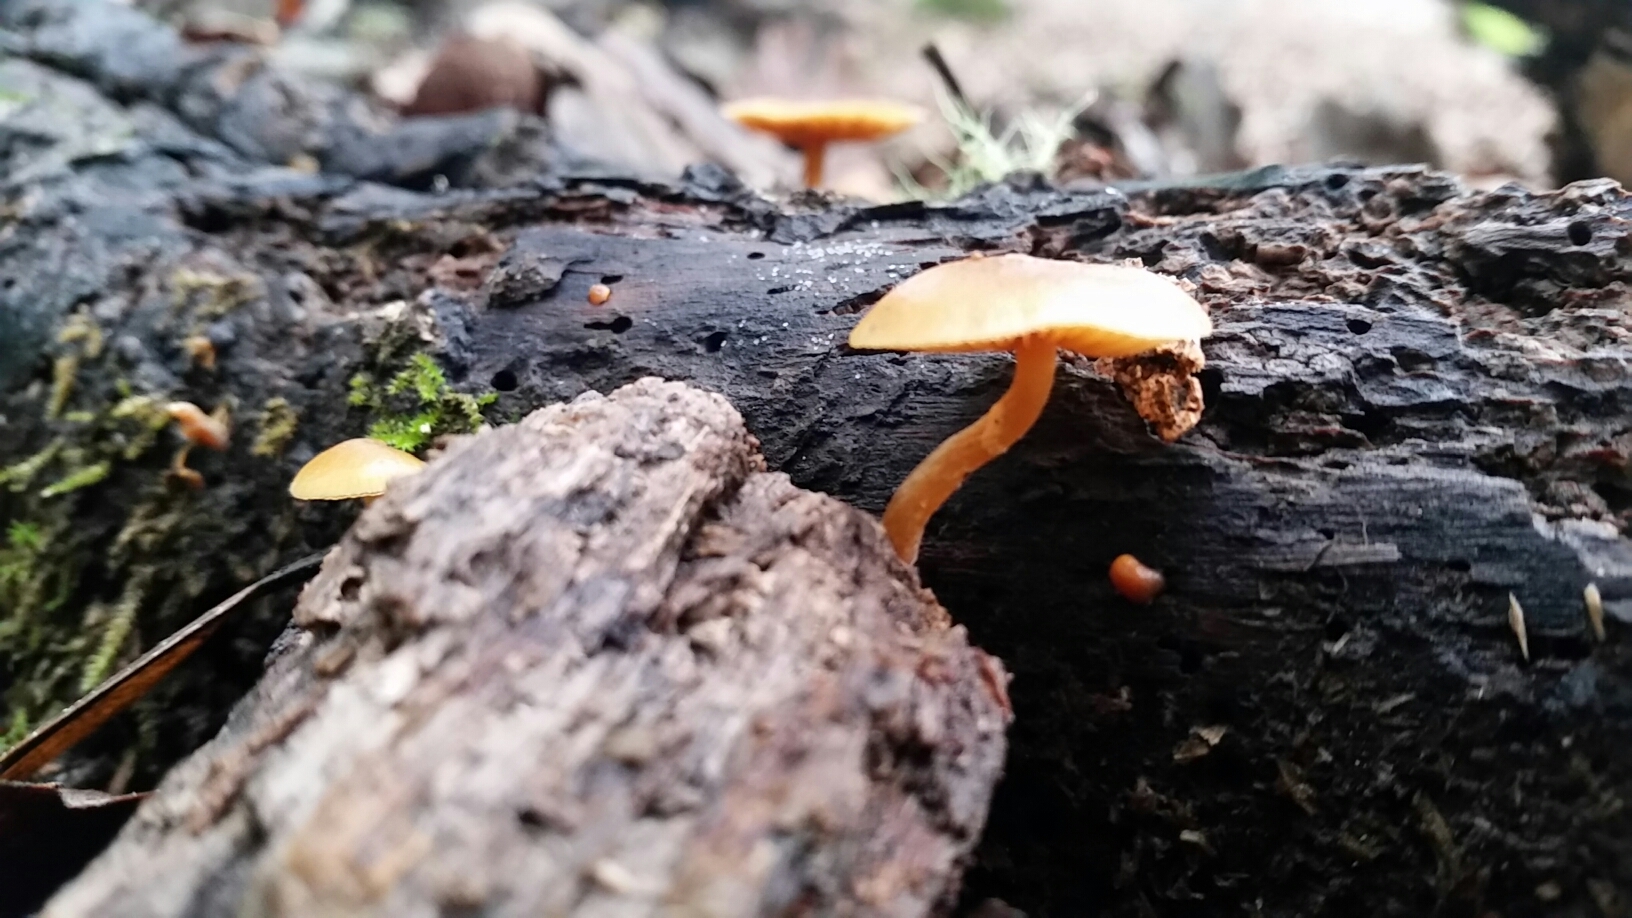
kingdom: Fungi
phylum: Basidiomycota
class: Agaricomycetes
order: Agaricales
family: Hymenogastraceae
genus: Galerina
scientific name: Galerina marginata
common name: Funeral bell
